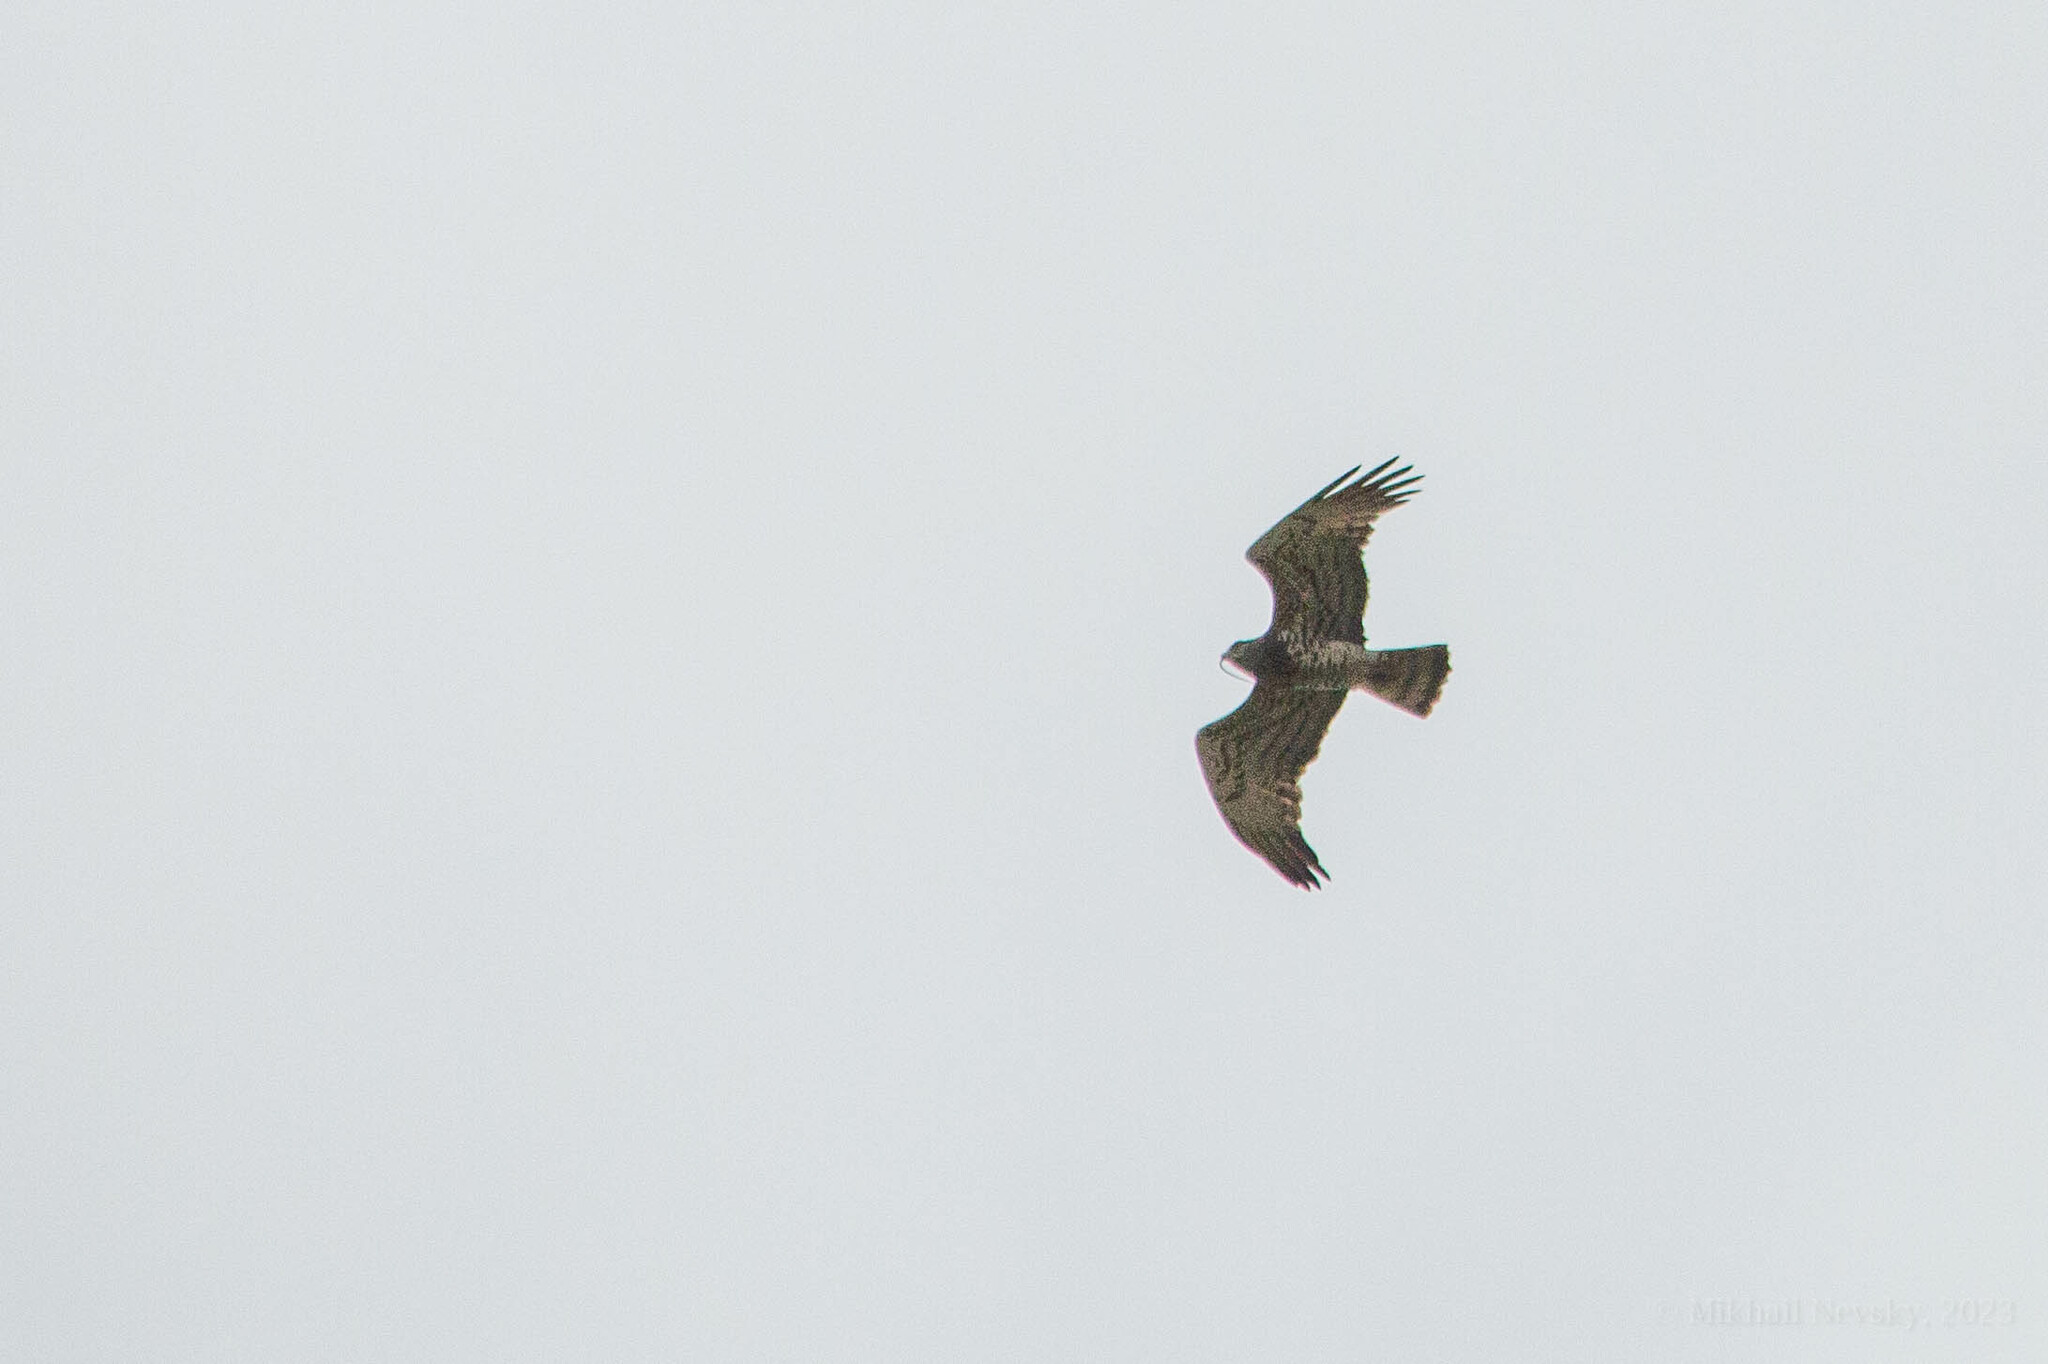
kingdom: Animalia
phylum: Chordata
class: Aves
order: Accipitriformes
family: Accipitridae
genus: Circaetus
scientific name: Circaetus gallicus
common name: Short-toed snake eagle
